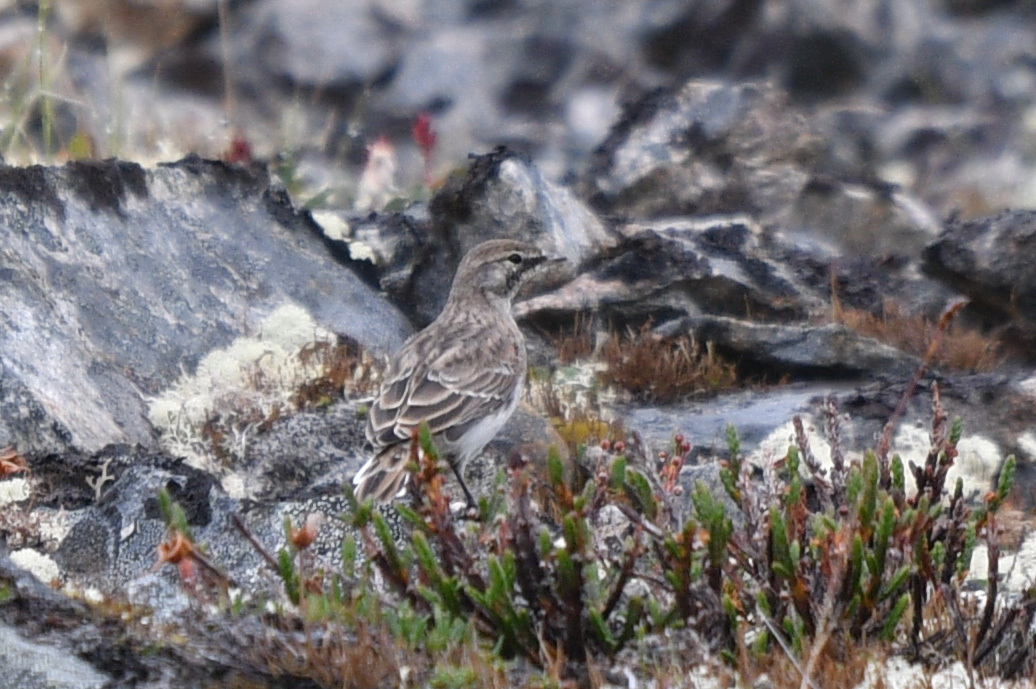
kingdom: Animalia
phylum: Chordata
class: Aves
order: Passeriformes
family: Alaudidae
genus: Eremophila
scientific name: Eremophila alpestris
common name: Horned lark
